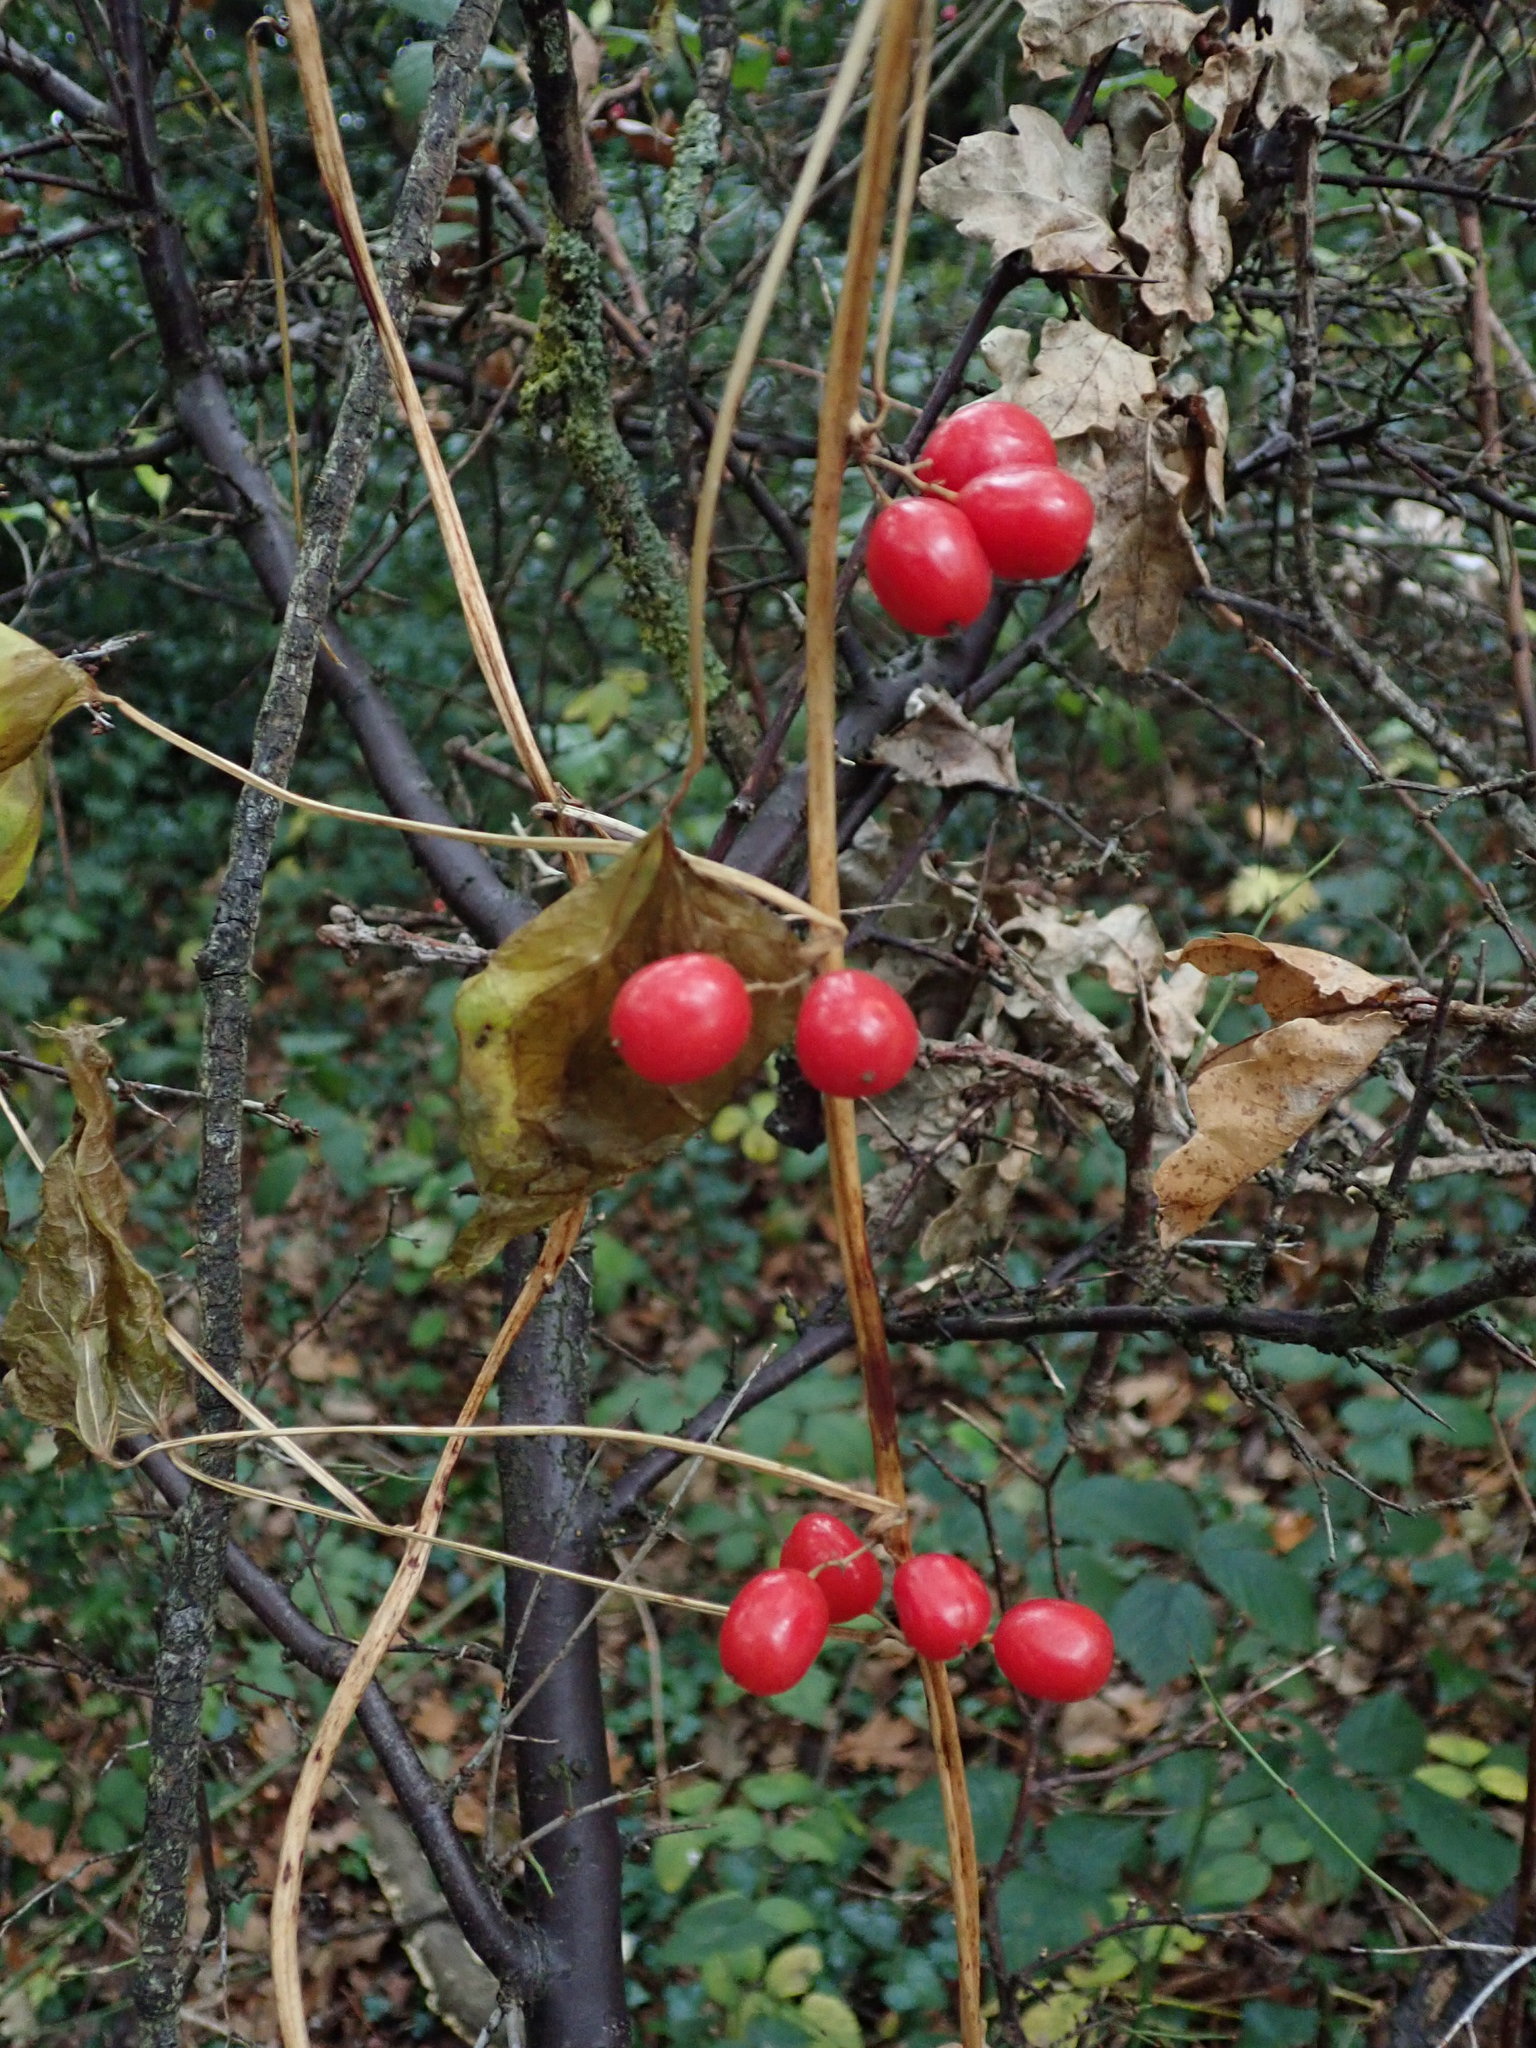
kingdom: Plantae
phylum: Tracheophyta
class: Liliopsida
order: Dioscoreales
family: Dioscoreaceae
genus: Dioscorea
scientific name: Dioscorea communis
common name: Black-bindweed
